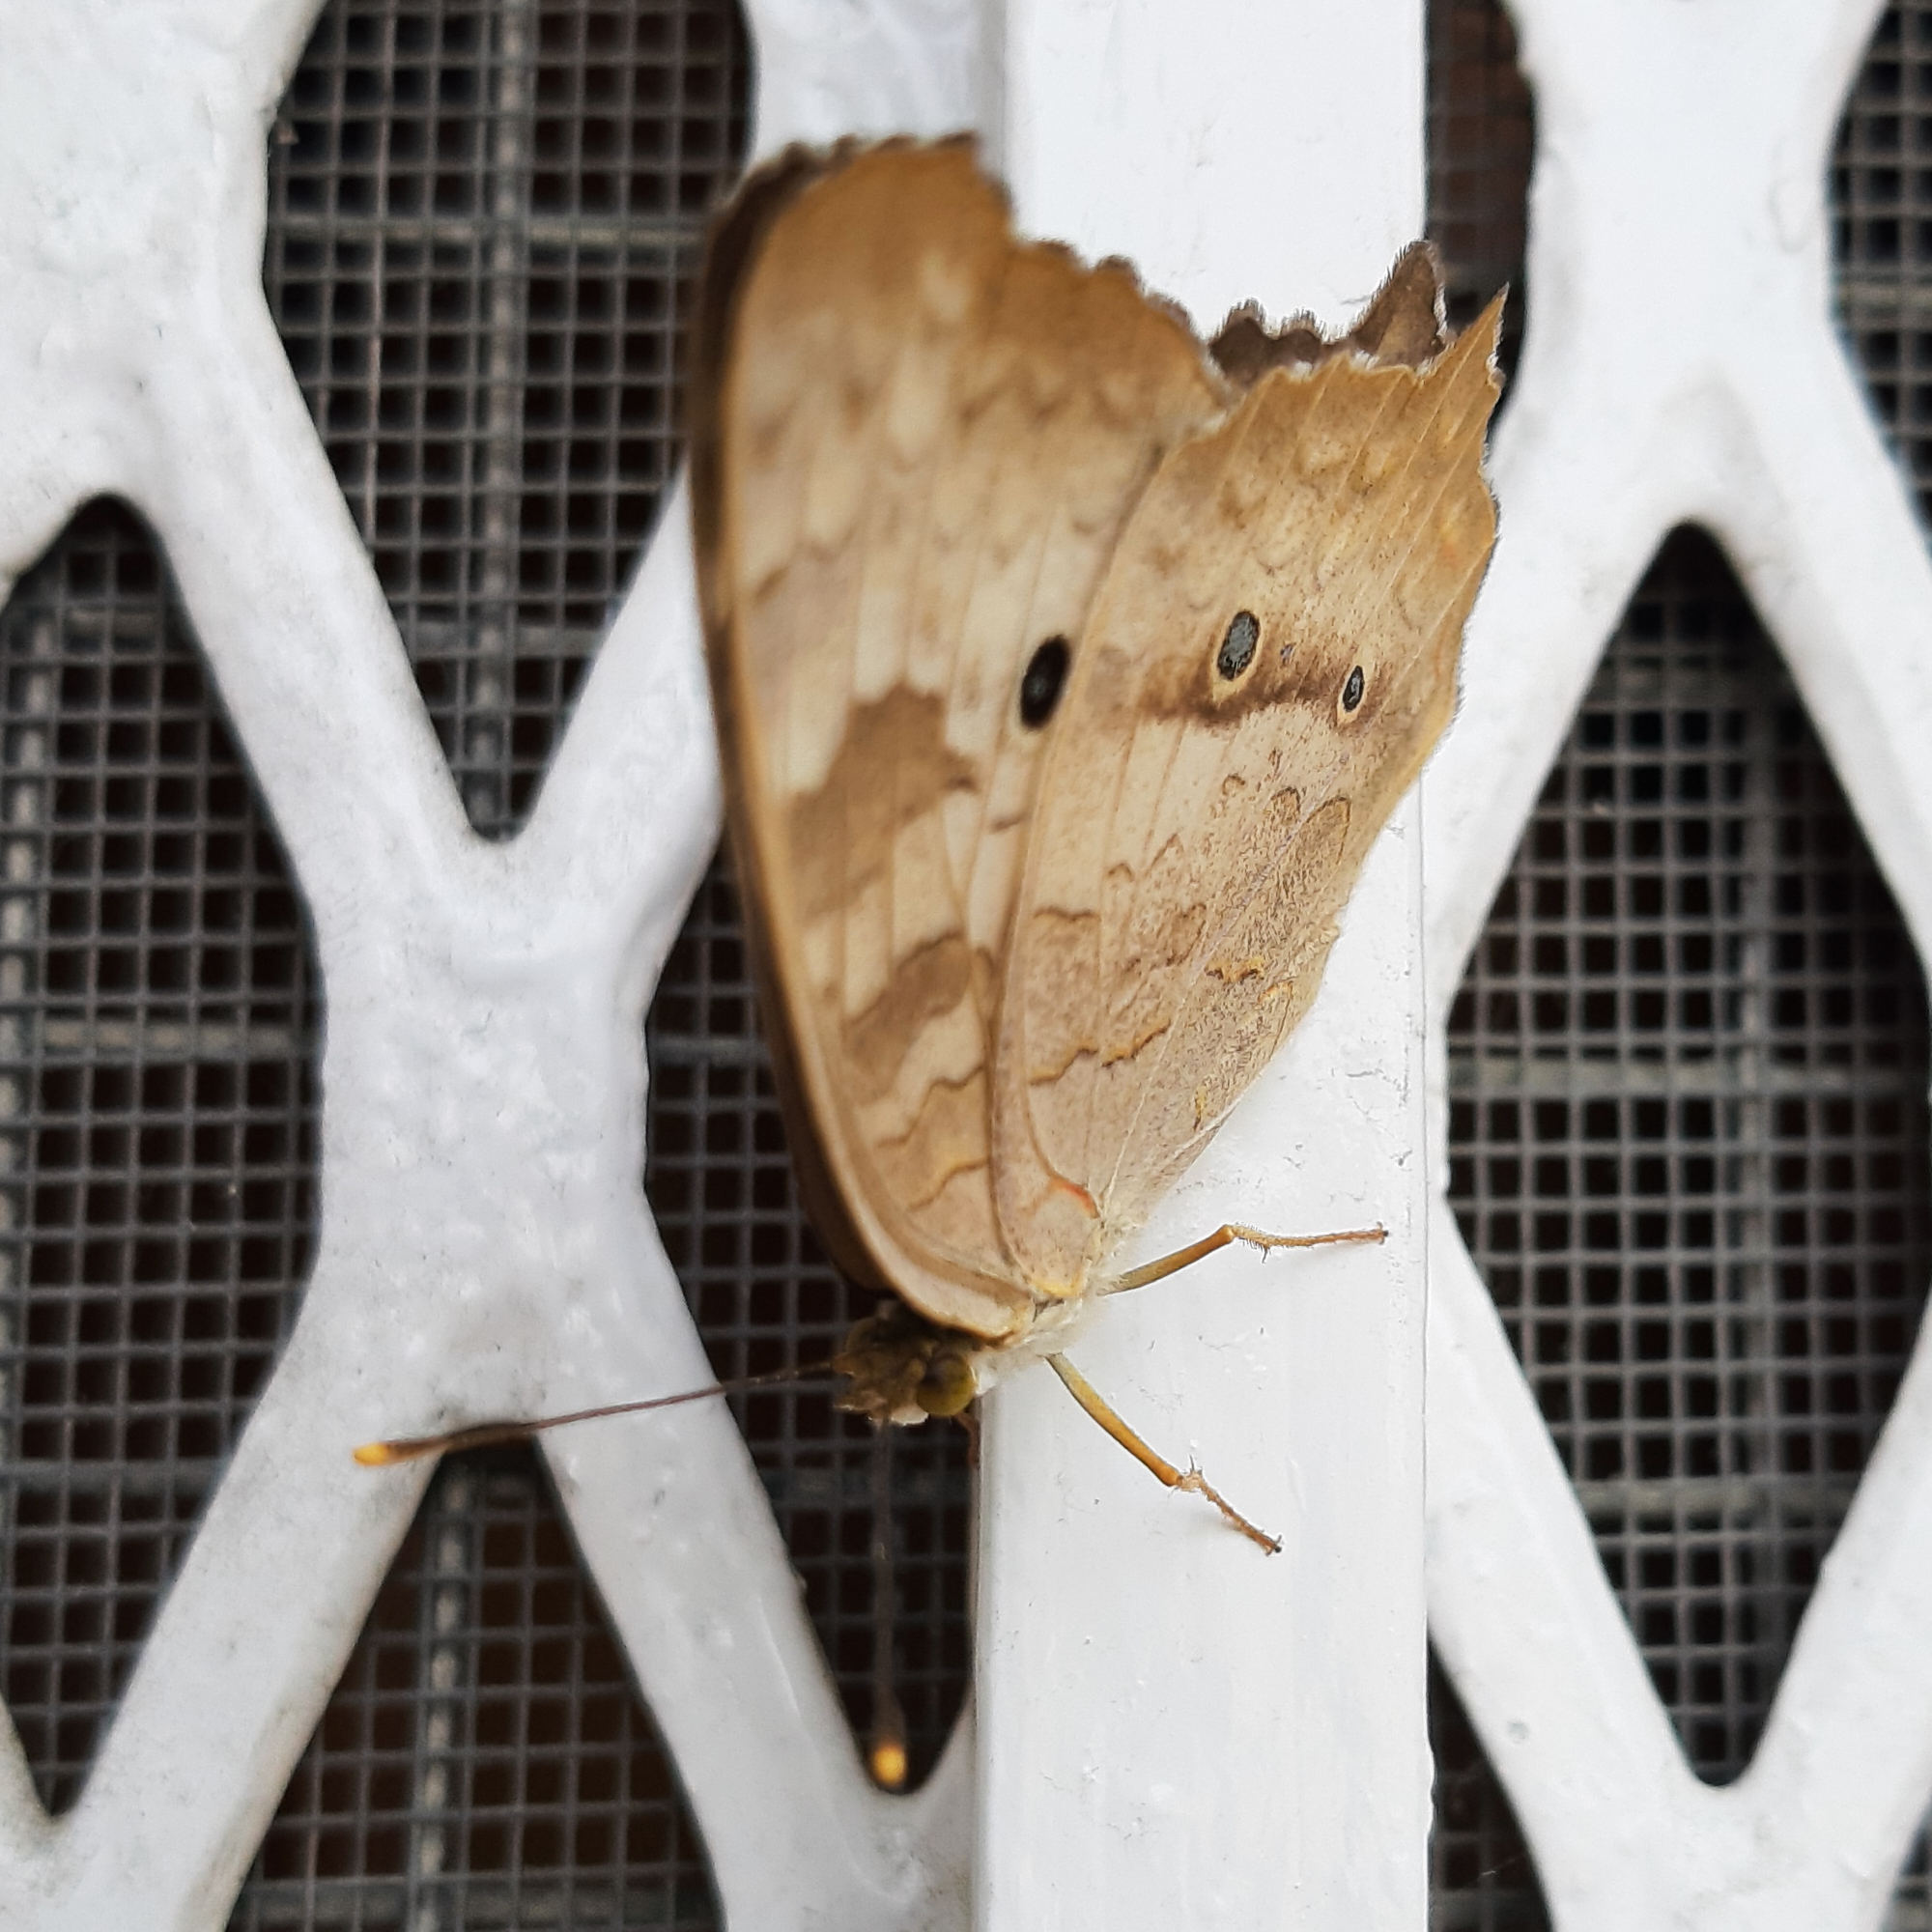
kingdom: Animalia
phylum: Arthropoda
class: Insecta
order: Lepidoptera
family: Nymphalidae
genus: Anartia
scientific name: Anartia jatrophae
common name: White peacock
